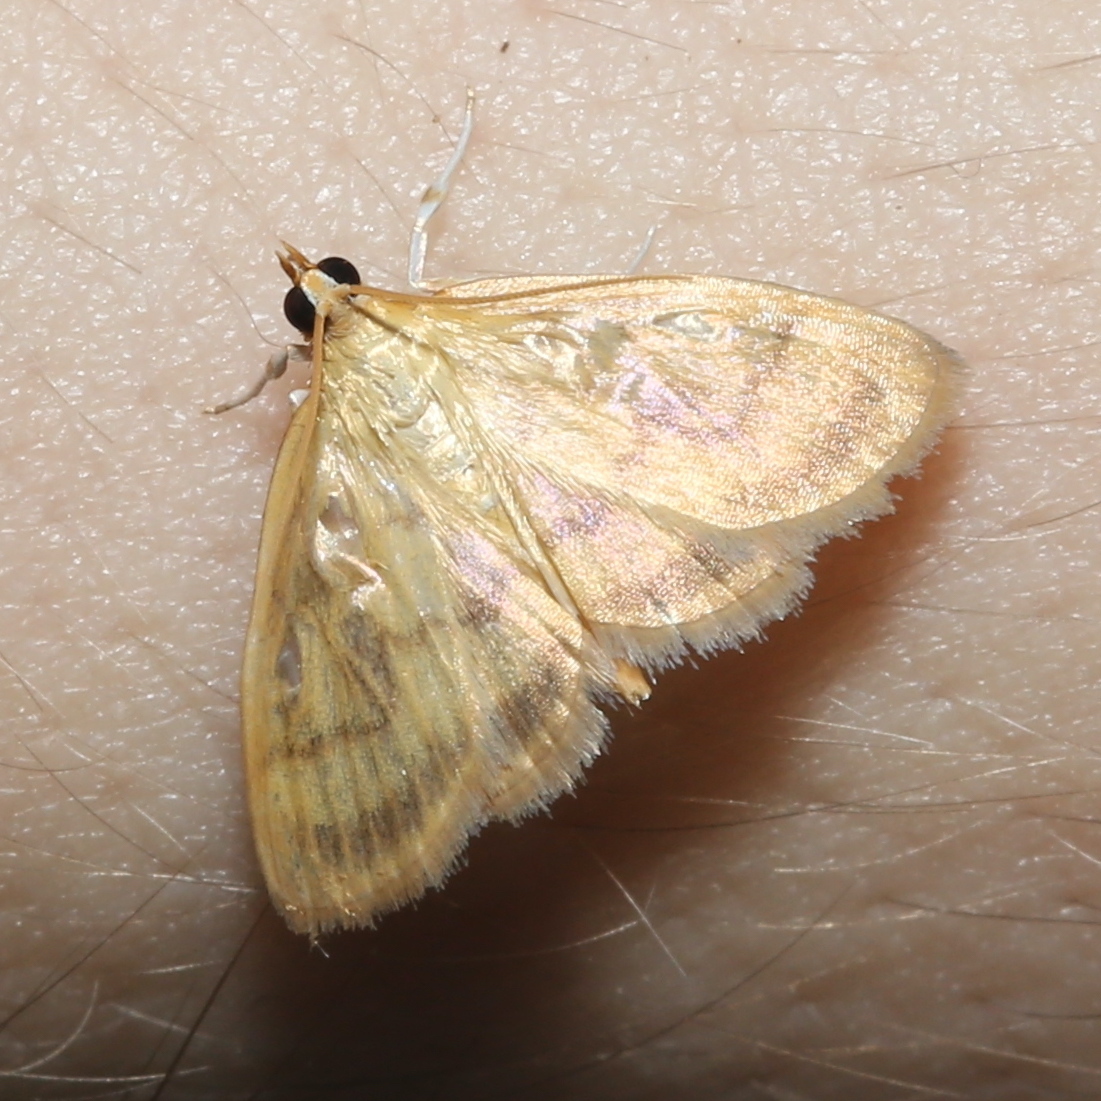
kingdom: Animalia
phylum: Arthropoda
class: Insecta
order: Lepidoptera
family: Crambidae
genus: Crocidophora
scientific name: Crocidophora tuberculalis
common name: Pale-winged crocidiphora moth
